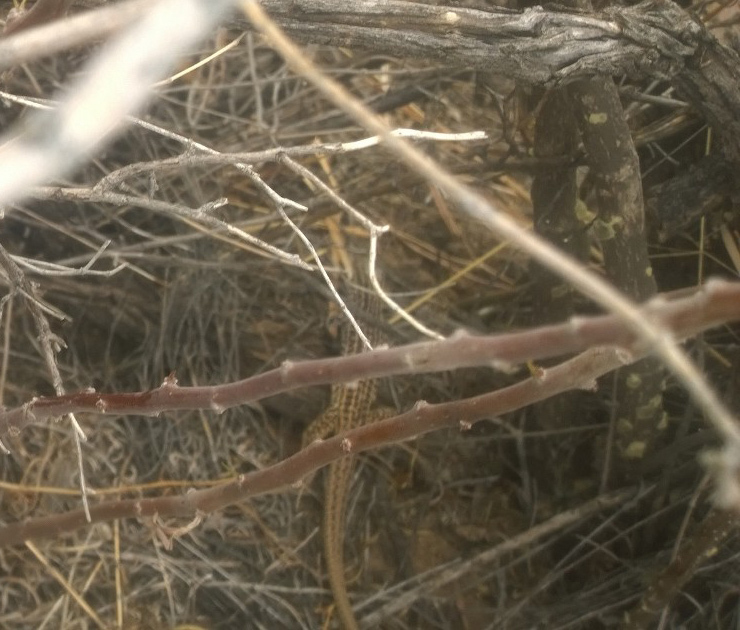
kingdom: Animalia
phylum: Chordata
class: Squamata
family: Teiidae
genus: Aspidoscelis
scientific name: Aspidoscelis tesselatus
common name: Common checkered whiptail [tesselata]
